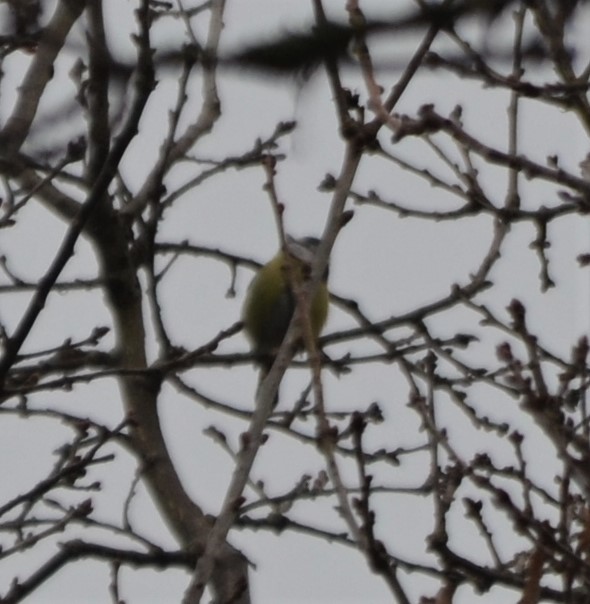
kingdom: Animalia
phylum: Chordata
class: Aves
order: Passeriformes
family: Paridae
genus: Cyanistes
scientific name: Cyanistes caeruleus
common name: Eurasian blue tit
